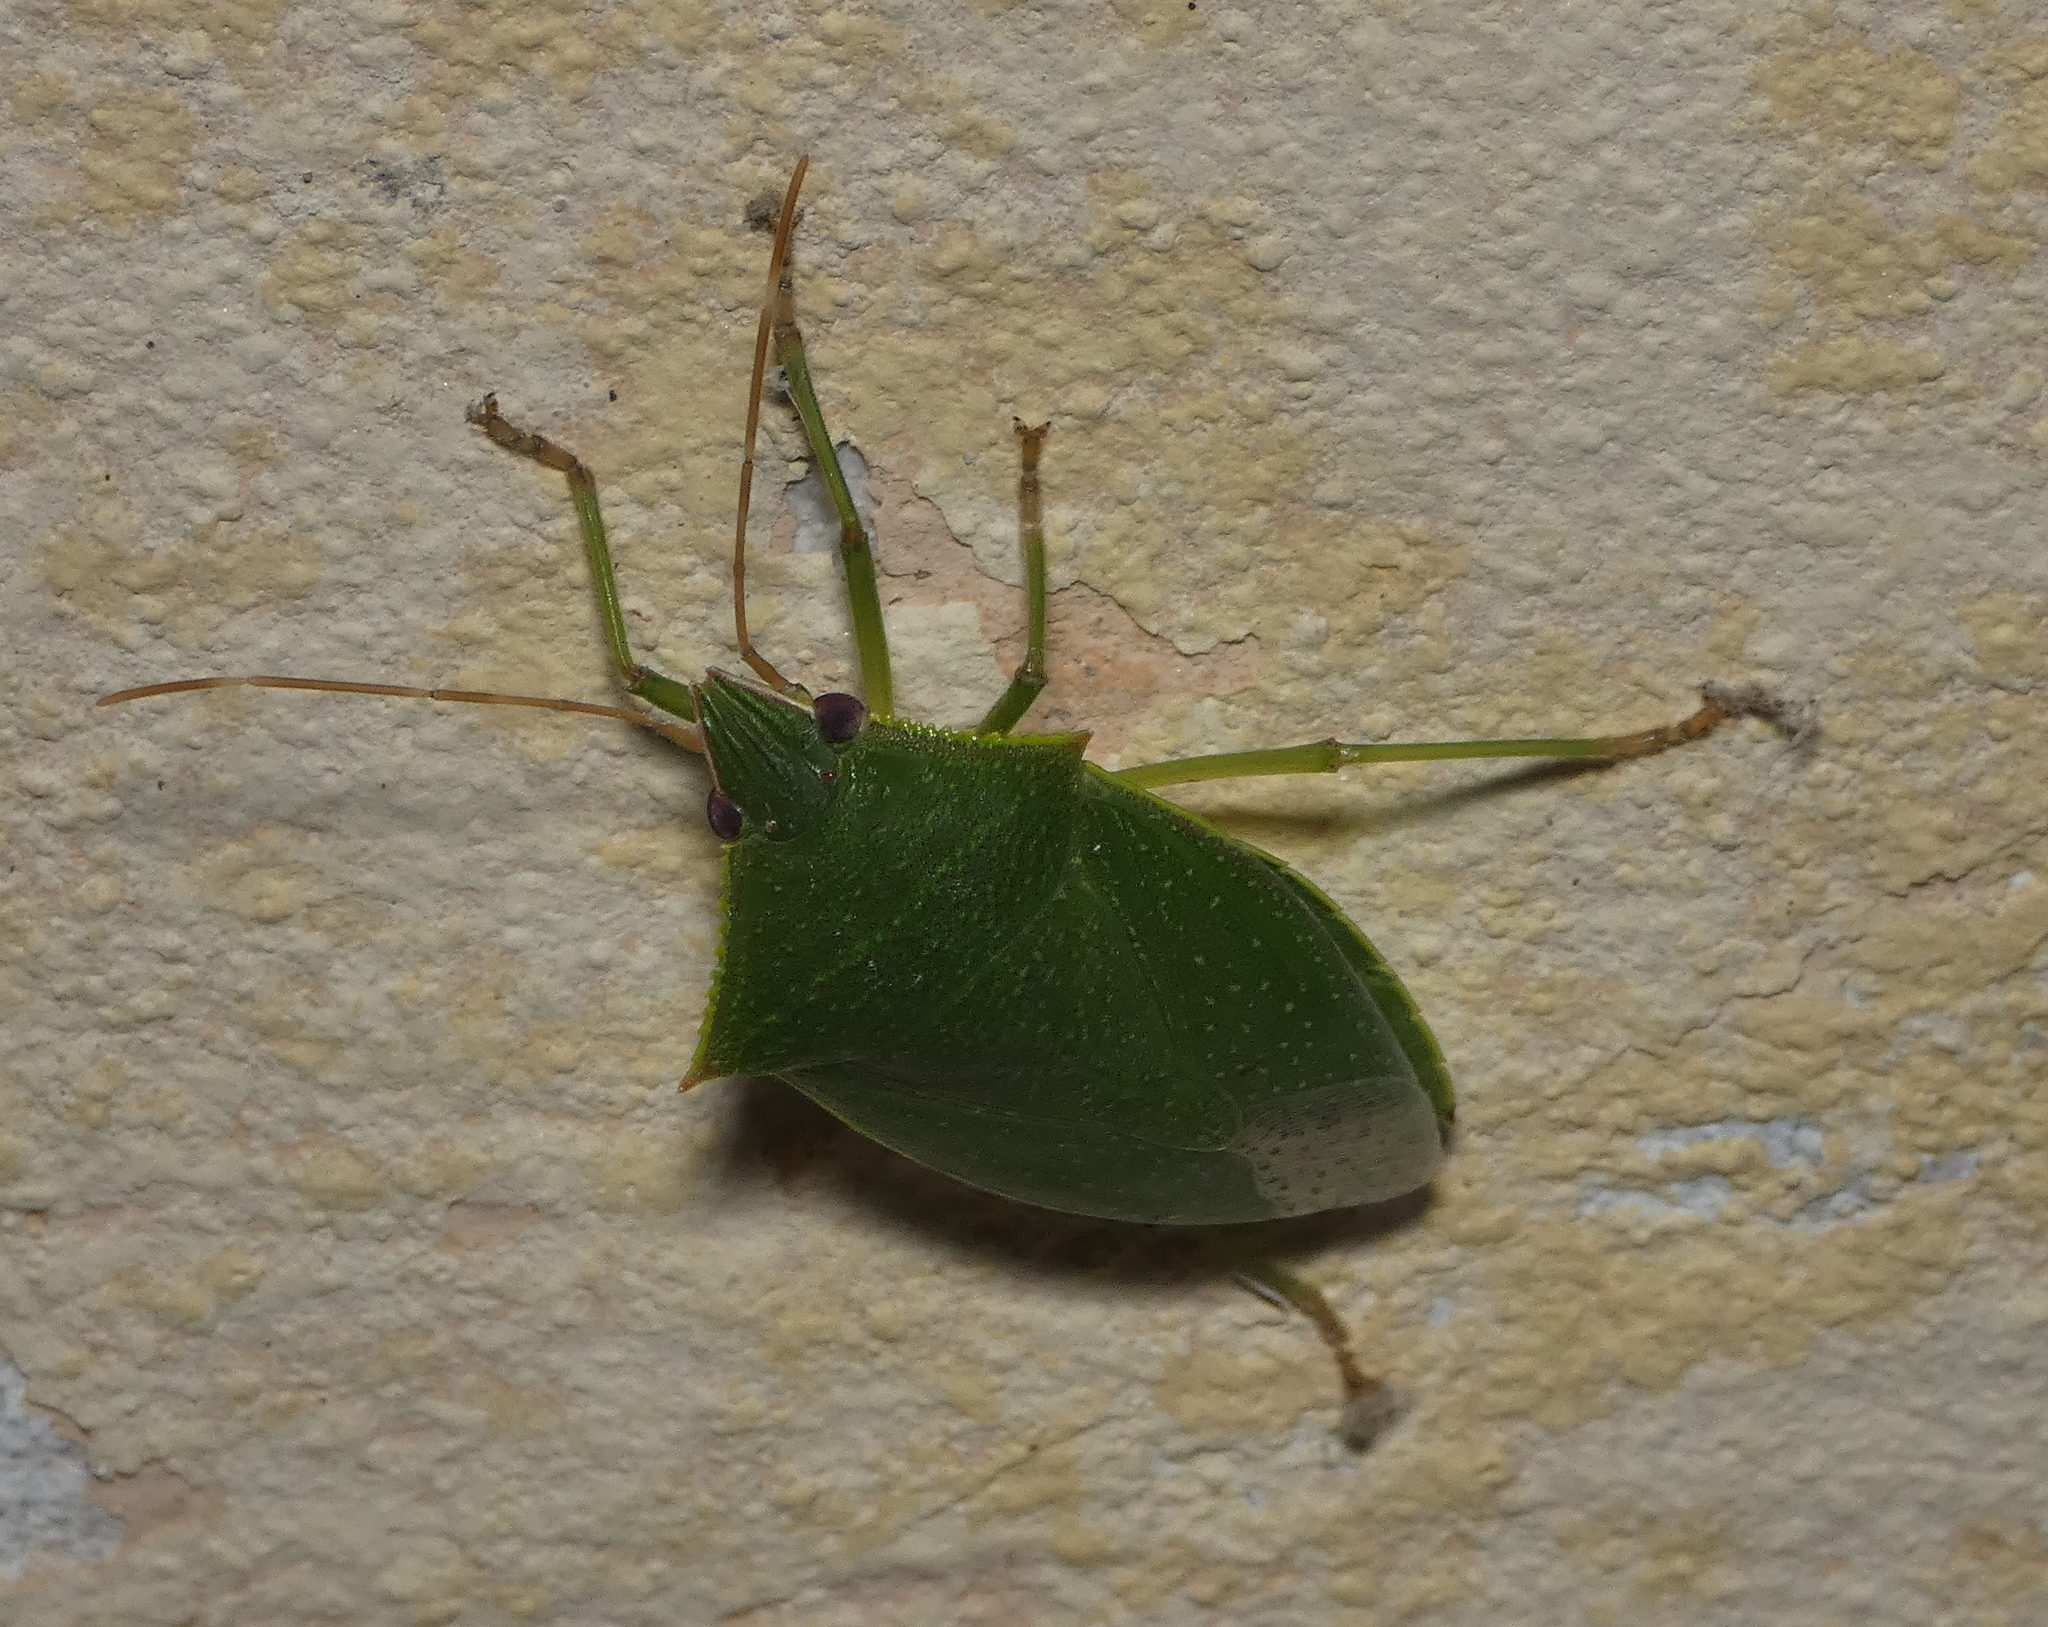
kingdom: Animalia
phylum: Arthropoda
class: Insecta
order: Hemiptera
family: Pentatomidae
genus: Loxa
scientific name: Loxa virescens
